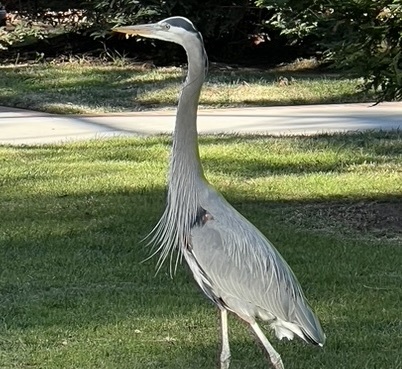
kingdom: Animalia
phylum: Chordata
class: Aves
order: Pelecaniformes
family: Ardeidae
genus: Ardea
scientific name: Ardea herodias
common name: Great blue heron
